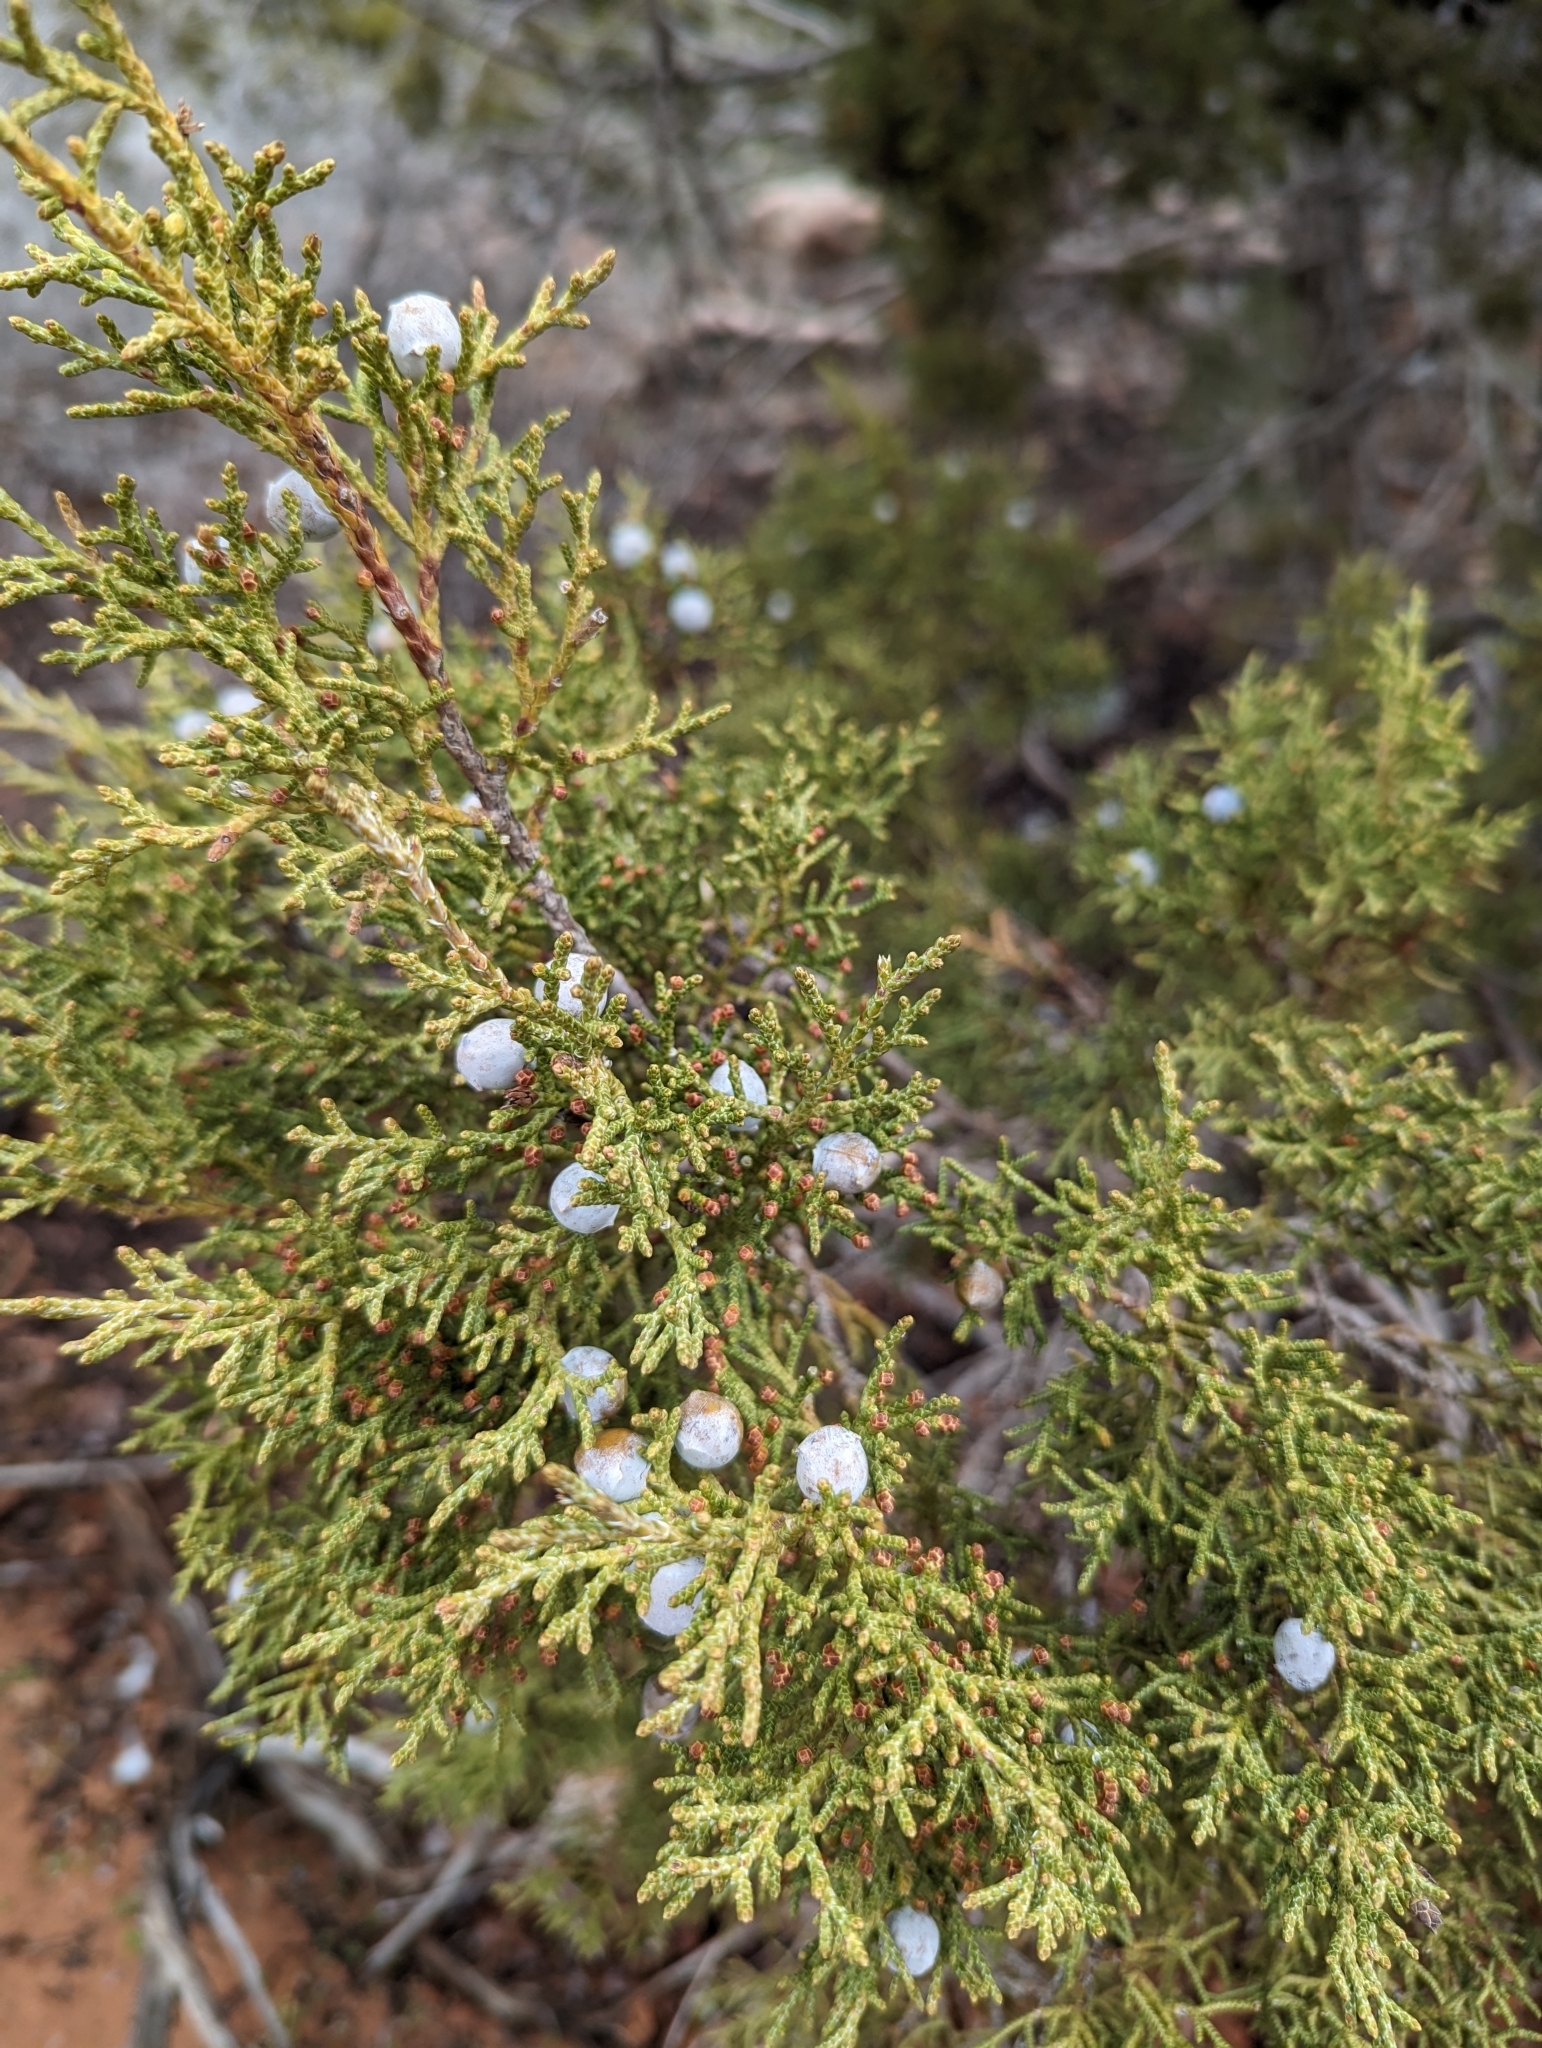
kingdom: Plantae
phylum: Tracheophyta
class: Pinopsida
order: Pinales
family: Cupressaceae
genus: Juniperus
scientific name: Juniperus osteosperma
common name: Utah juniper
